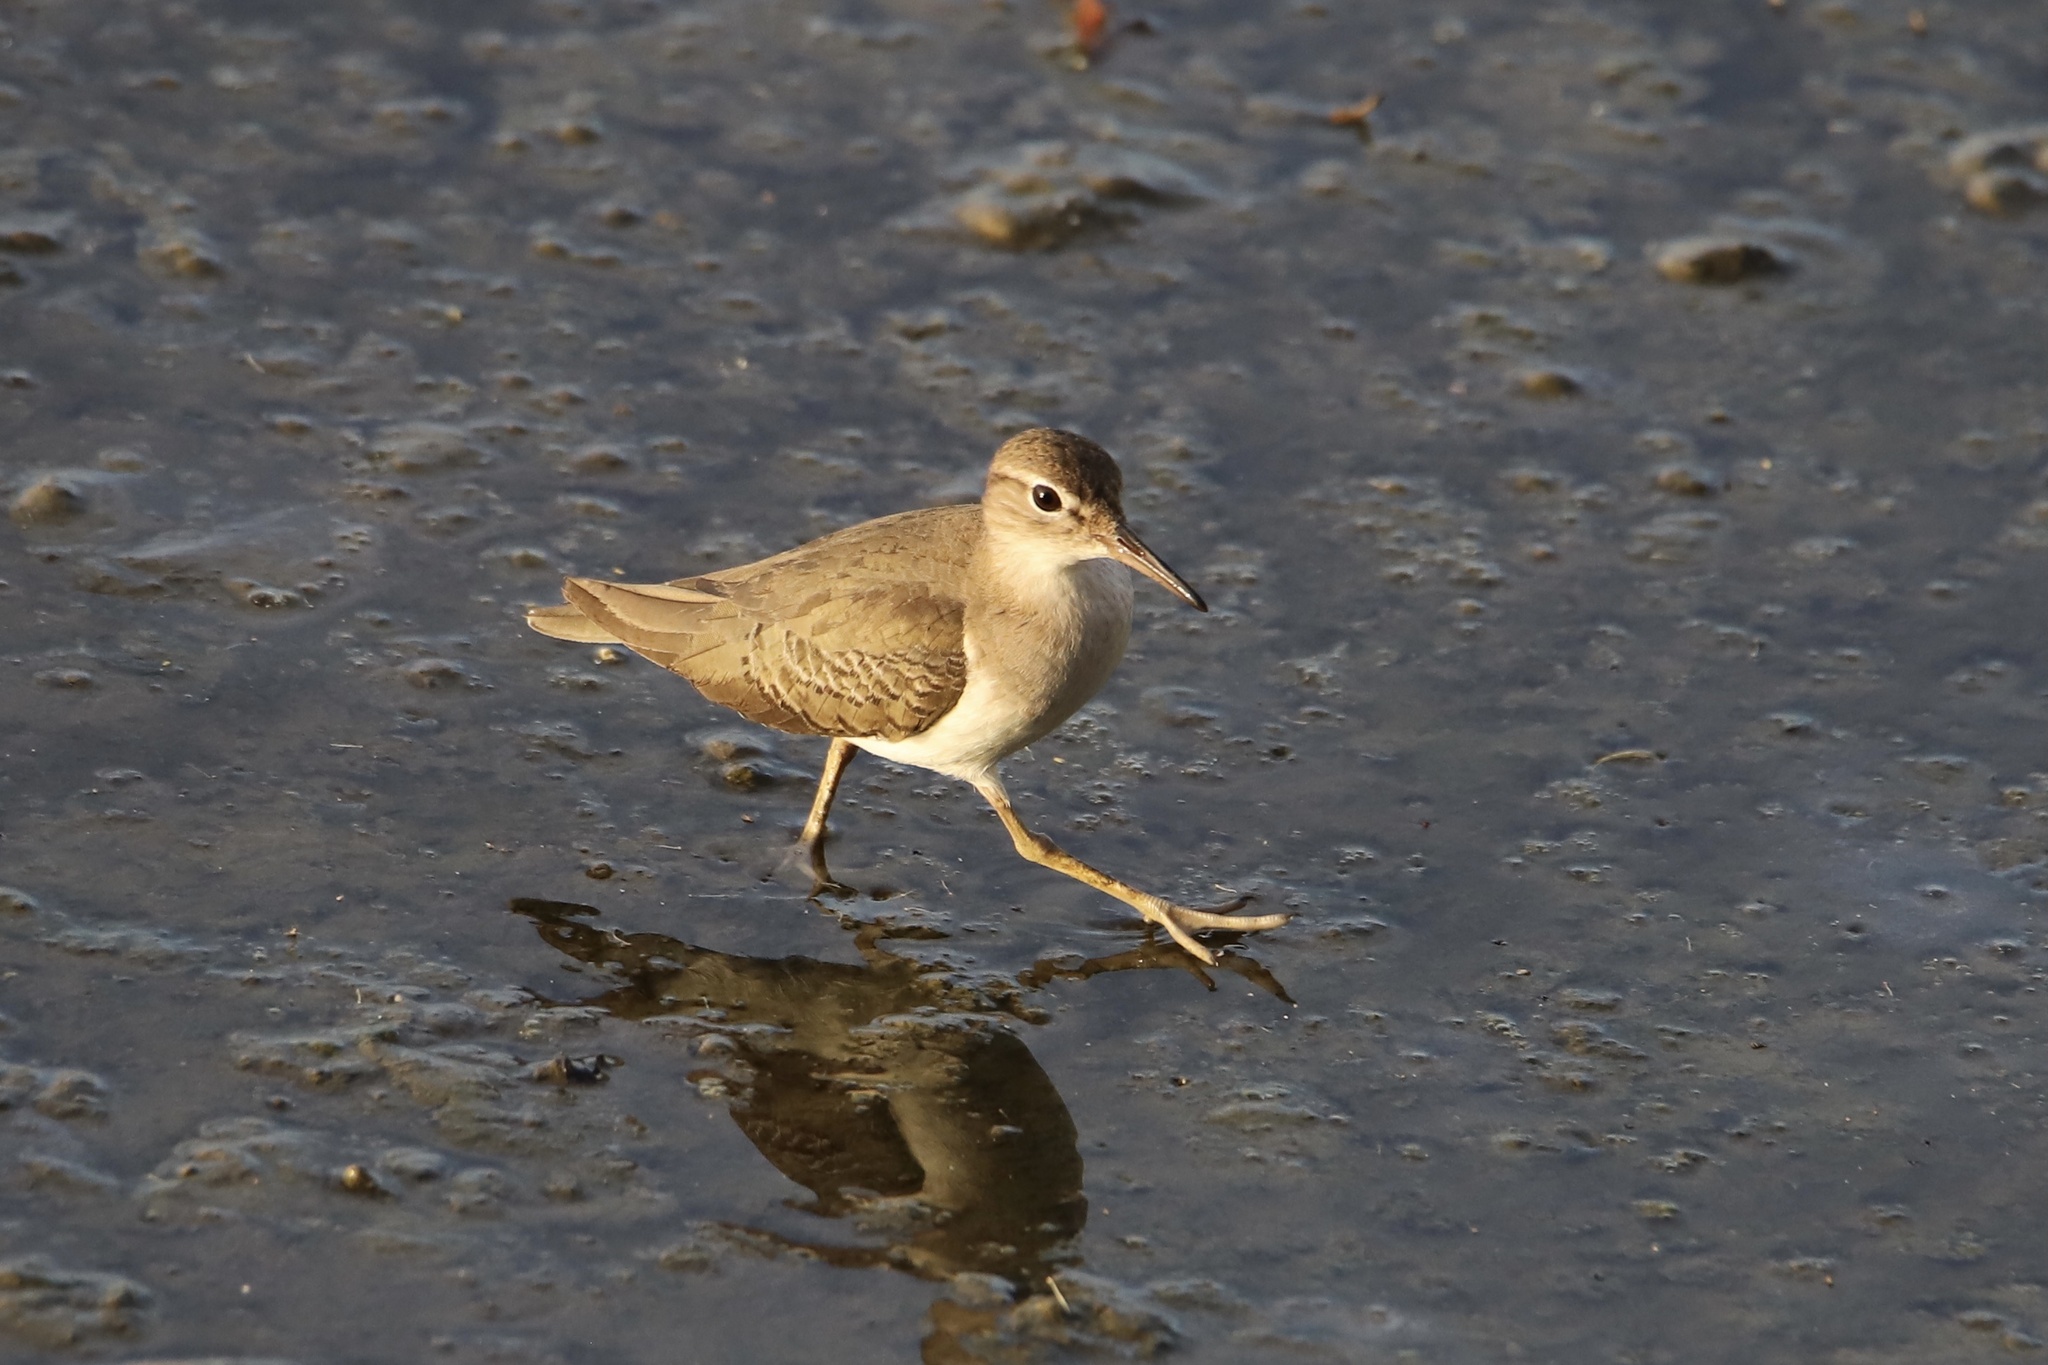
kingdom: Animalia
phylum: Chordata
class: Aves
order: Charadriiformes
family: Scolopacidae
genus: Actitis
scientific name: Actitis macularius
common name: Spotted sandpiper
